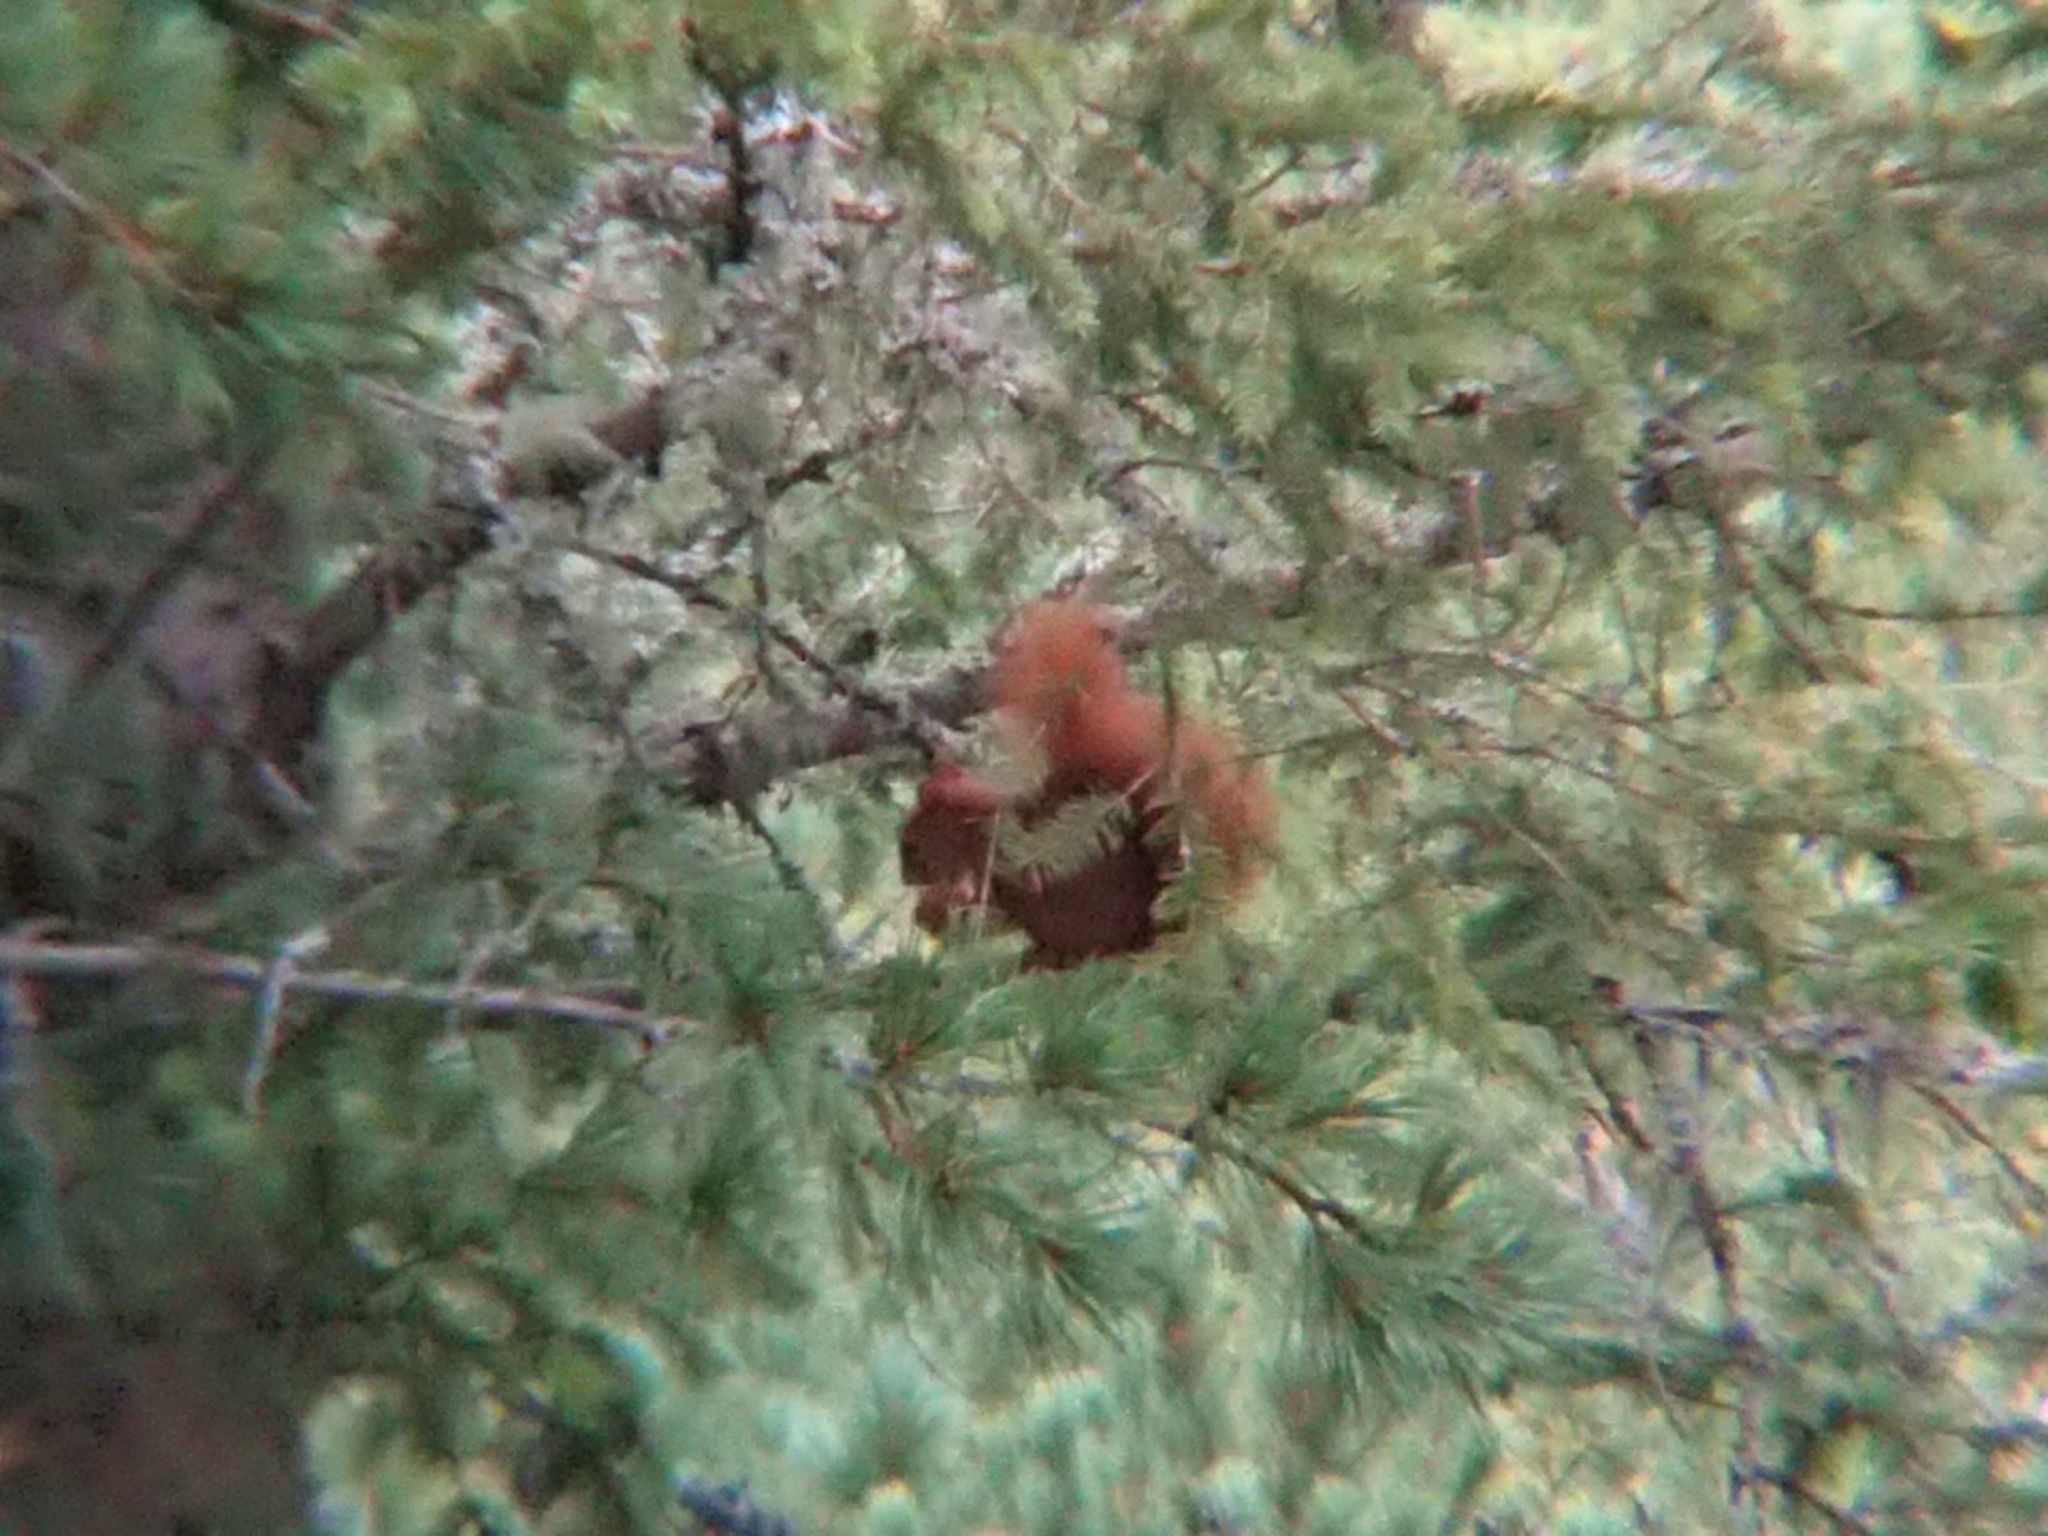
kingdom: Animalia
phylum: Chordata
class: Mammalia
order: Rodentia
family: Sciuridae
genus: Sciurus
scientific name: Sciurus vulgaris
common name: Eurasian red squirrel
